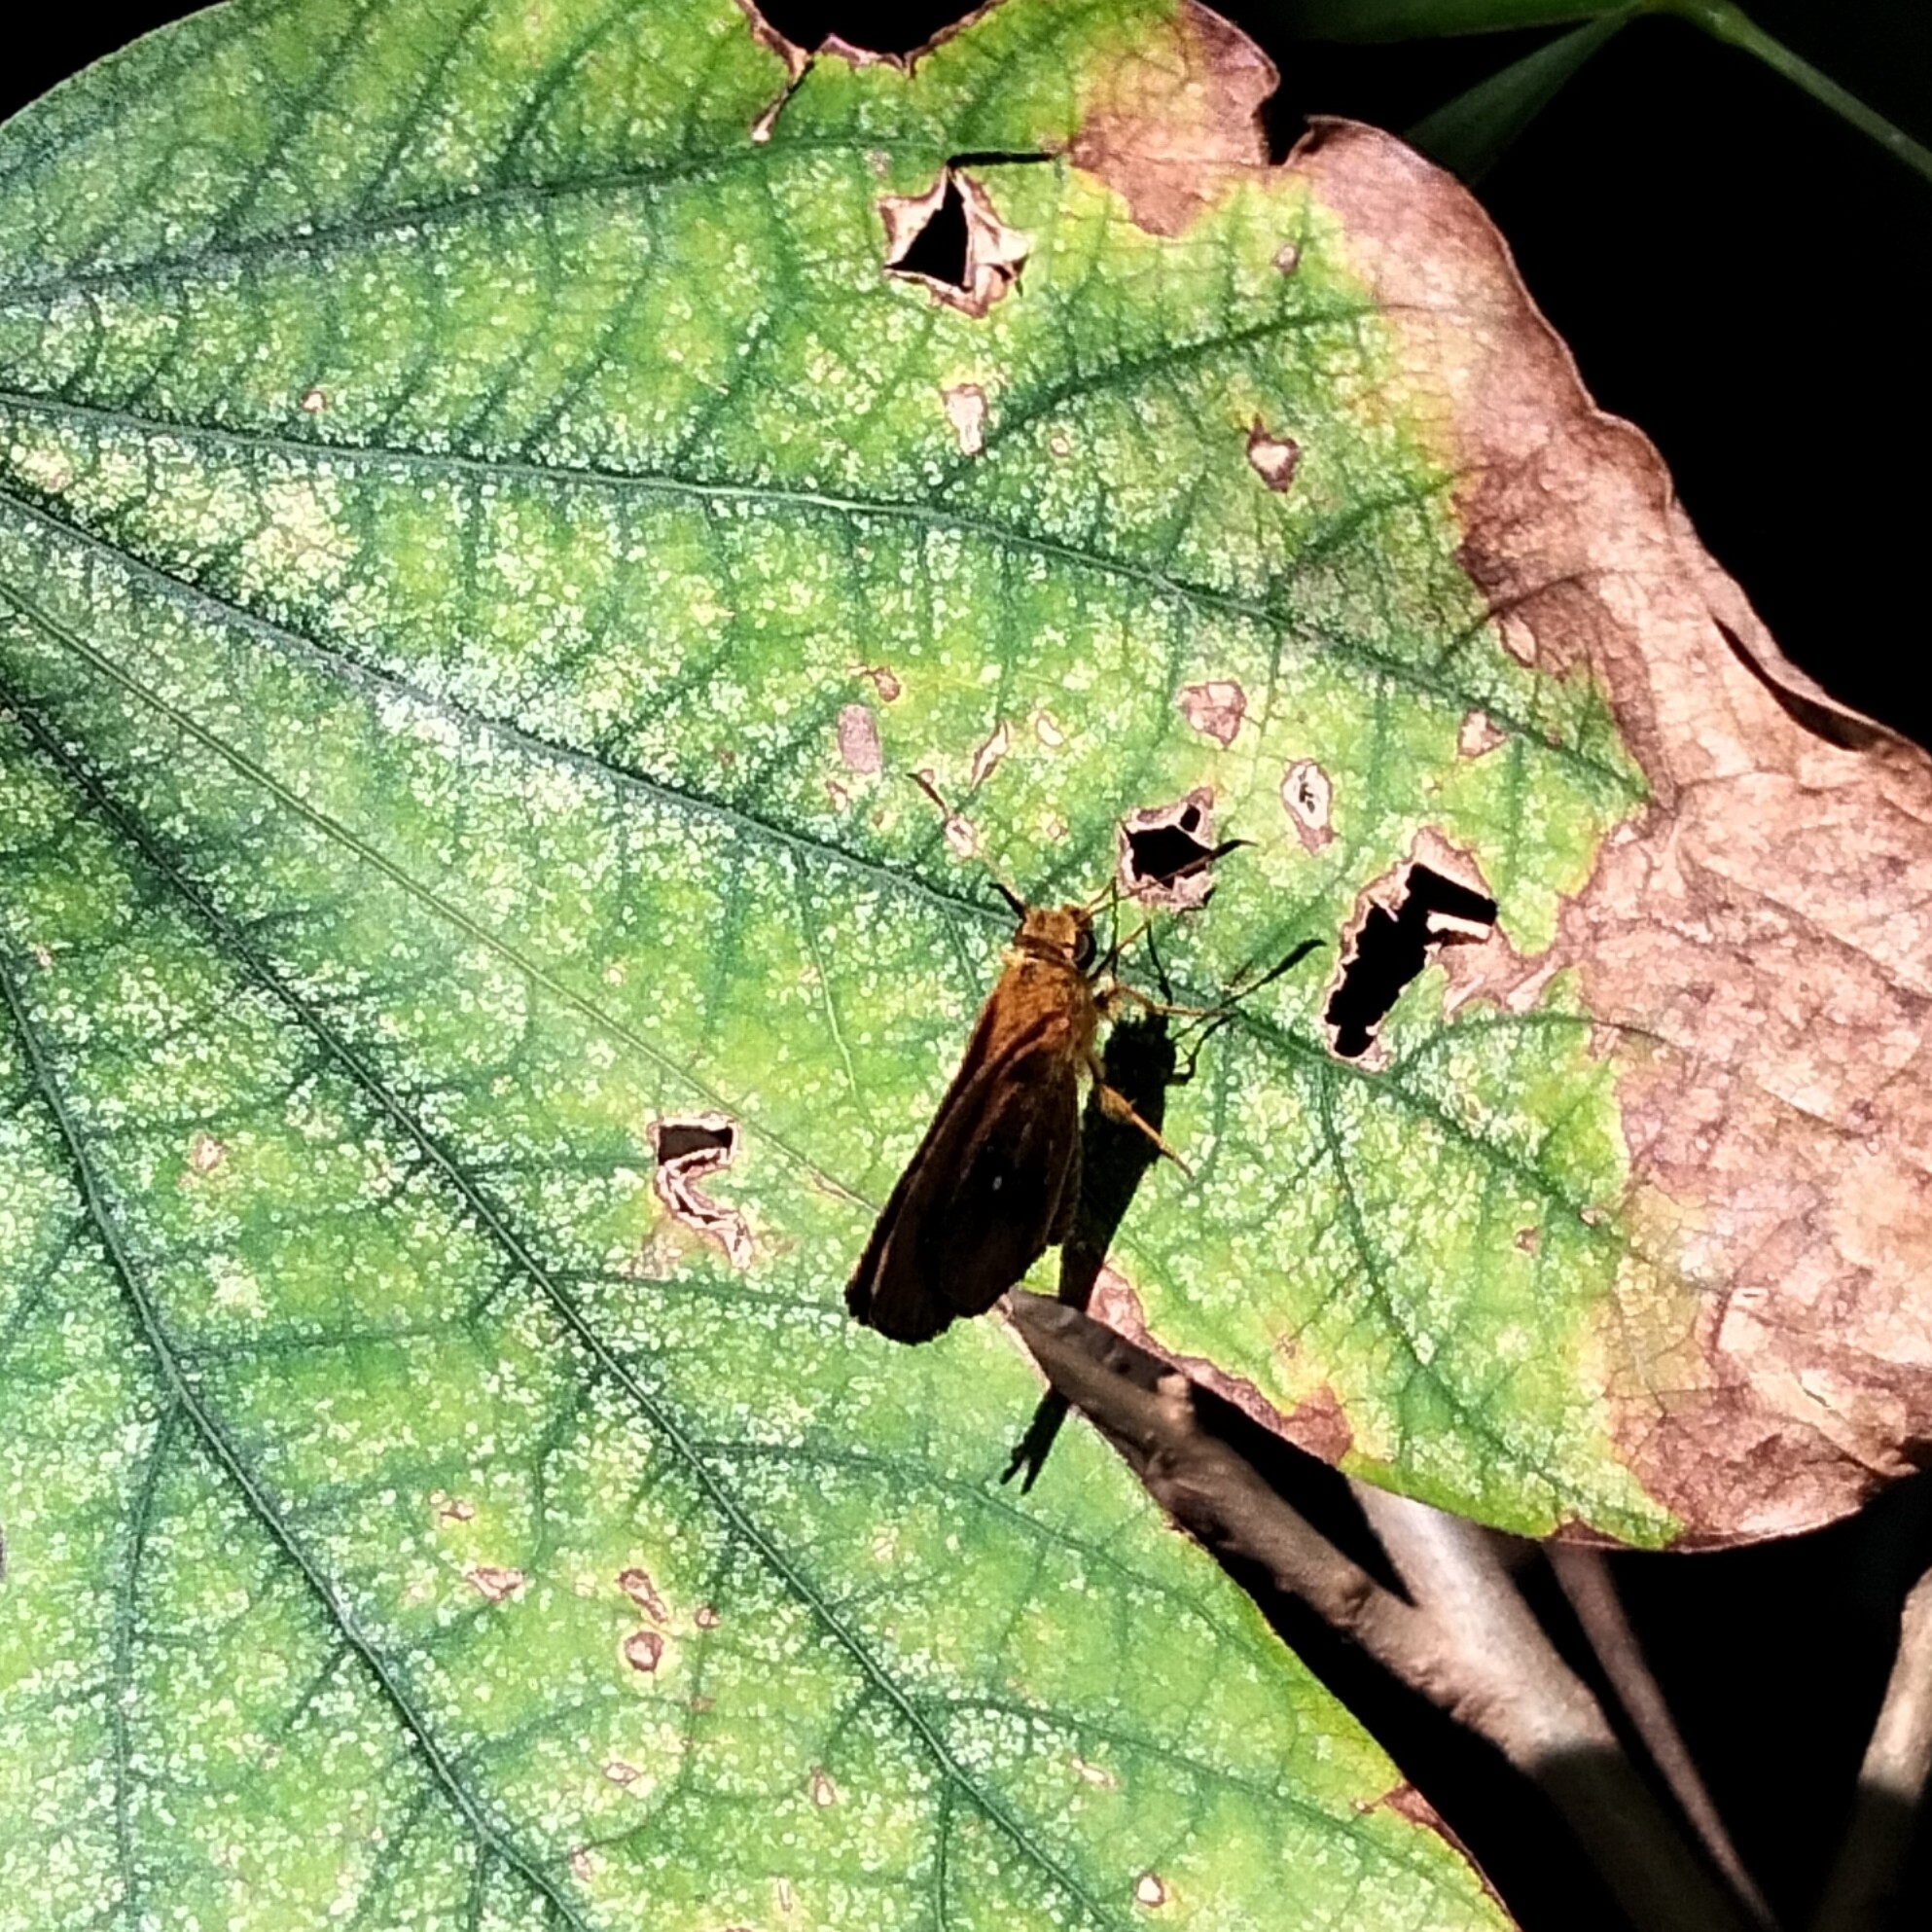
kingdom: Animalia
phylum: Arthropoda
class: Insecta
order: Lepidoptera
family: Hesperiidae
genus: Iambrix
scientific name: Iambrix salsala
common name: Chestnut bob
